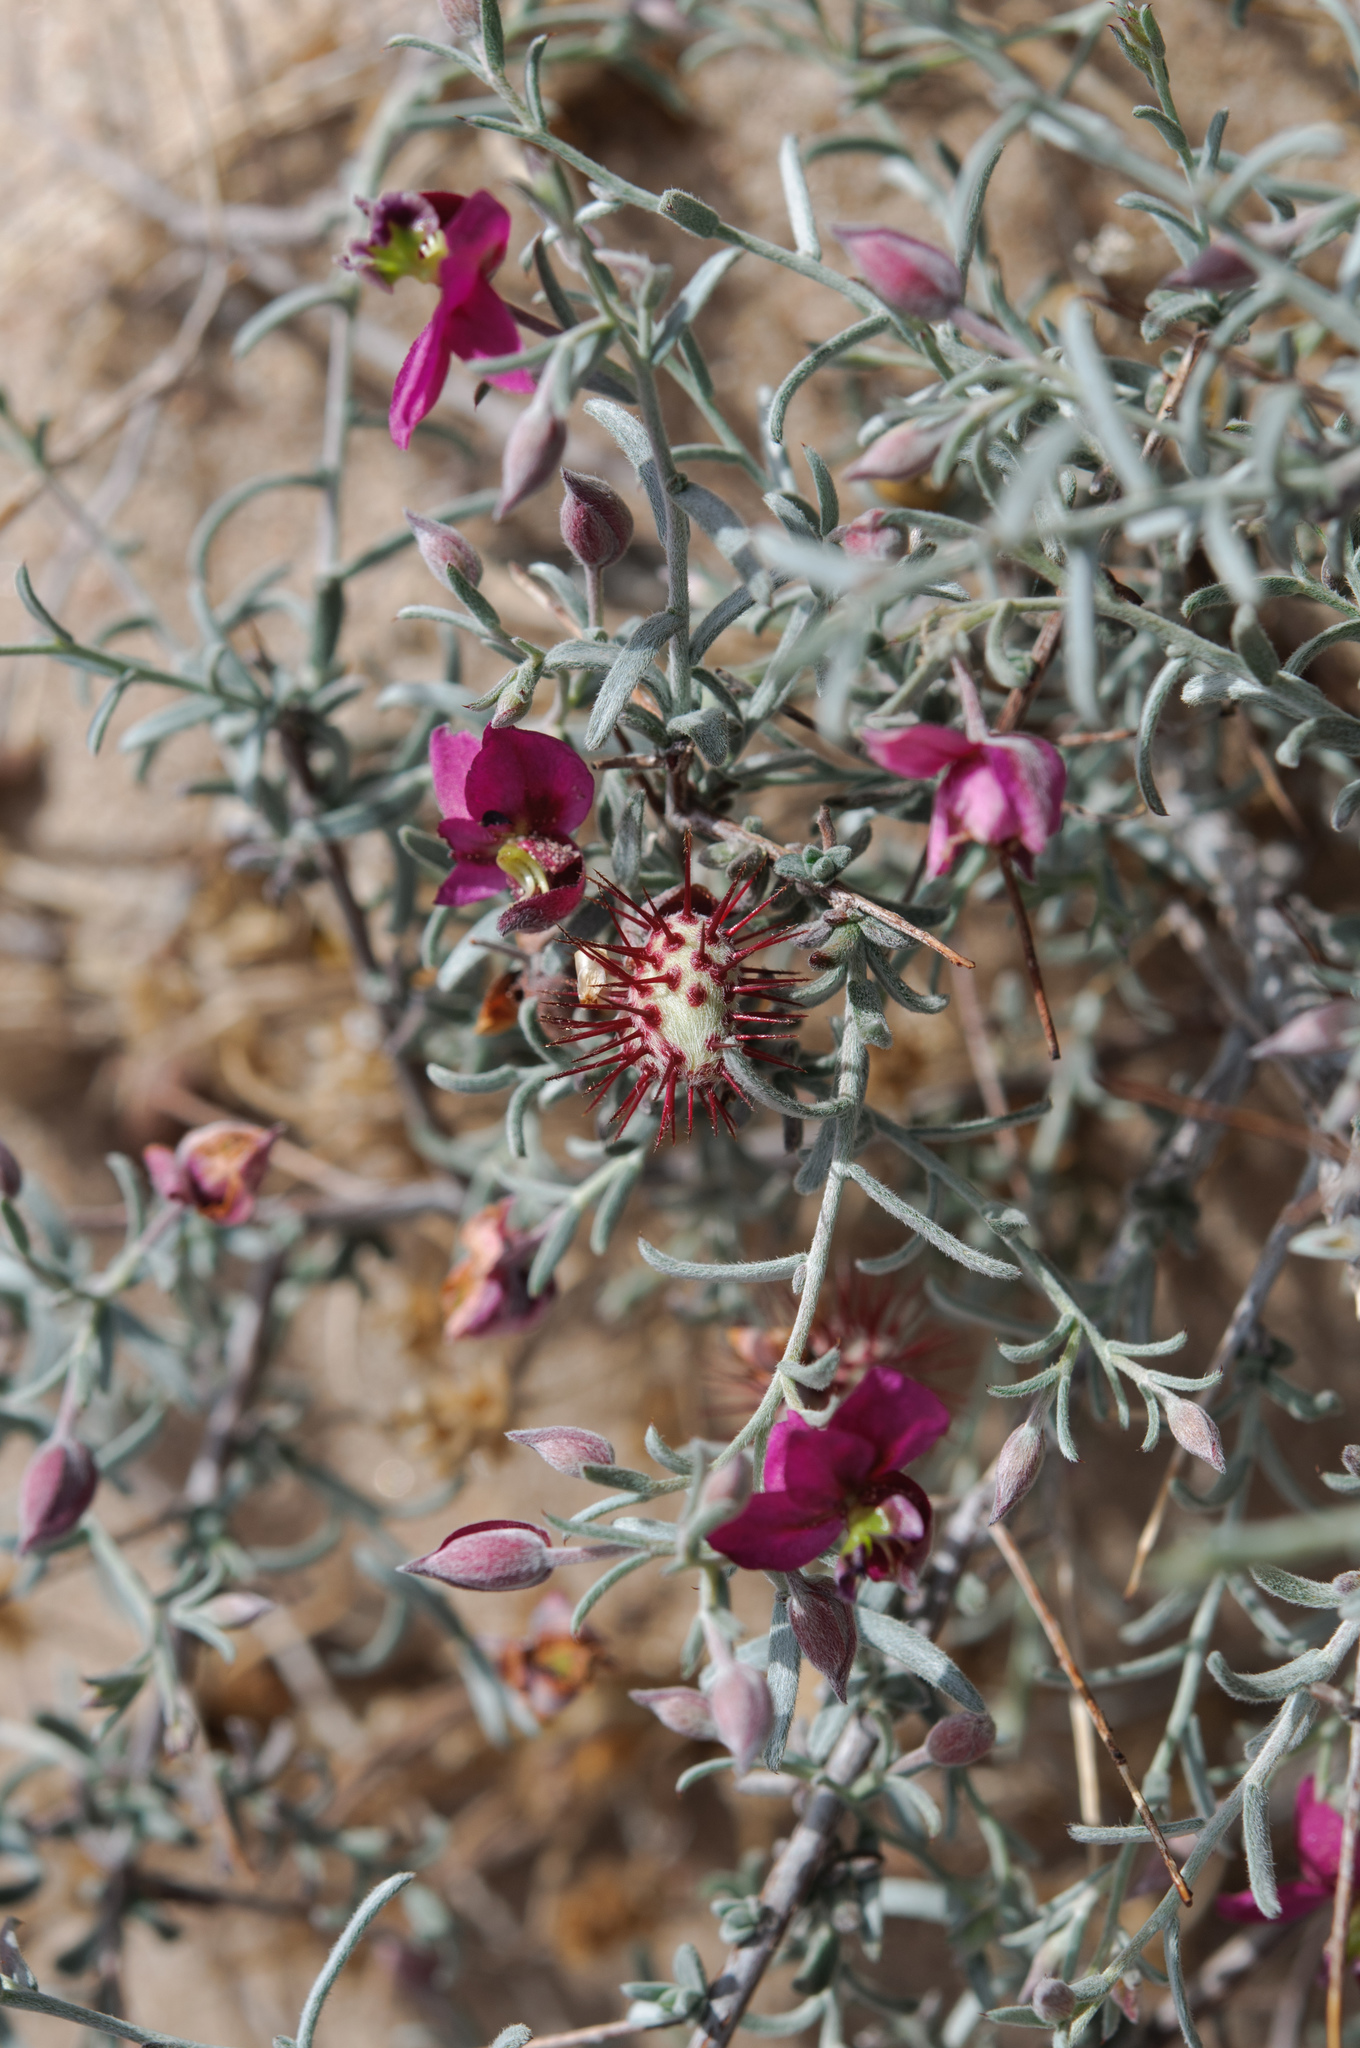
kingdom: Plantae
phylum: Tracheophyta
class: Magnoliopsida
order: Zygophyllales
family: Krameriaceae
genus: Krameria
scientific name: Krameria erecta
